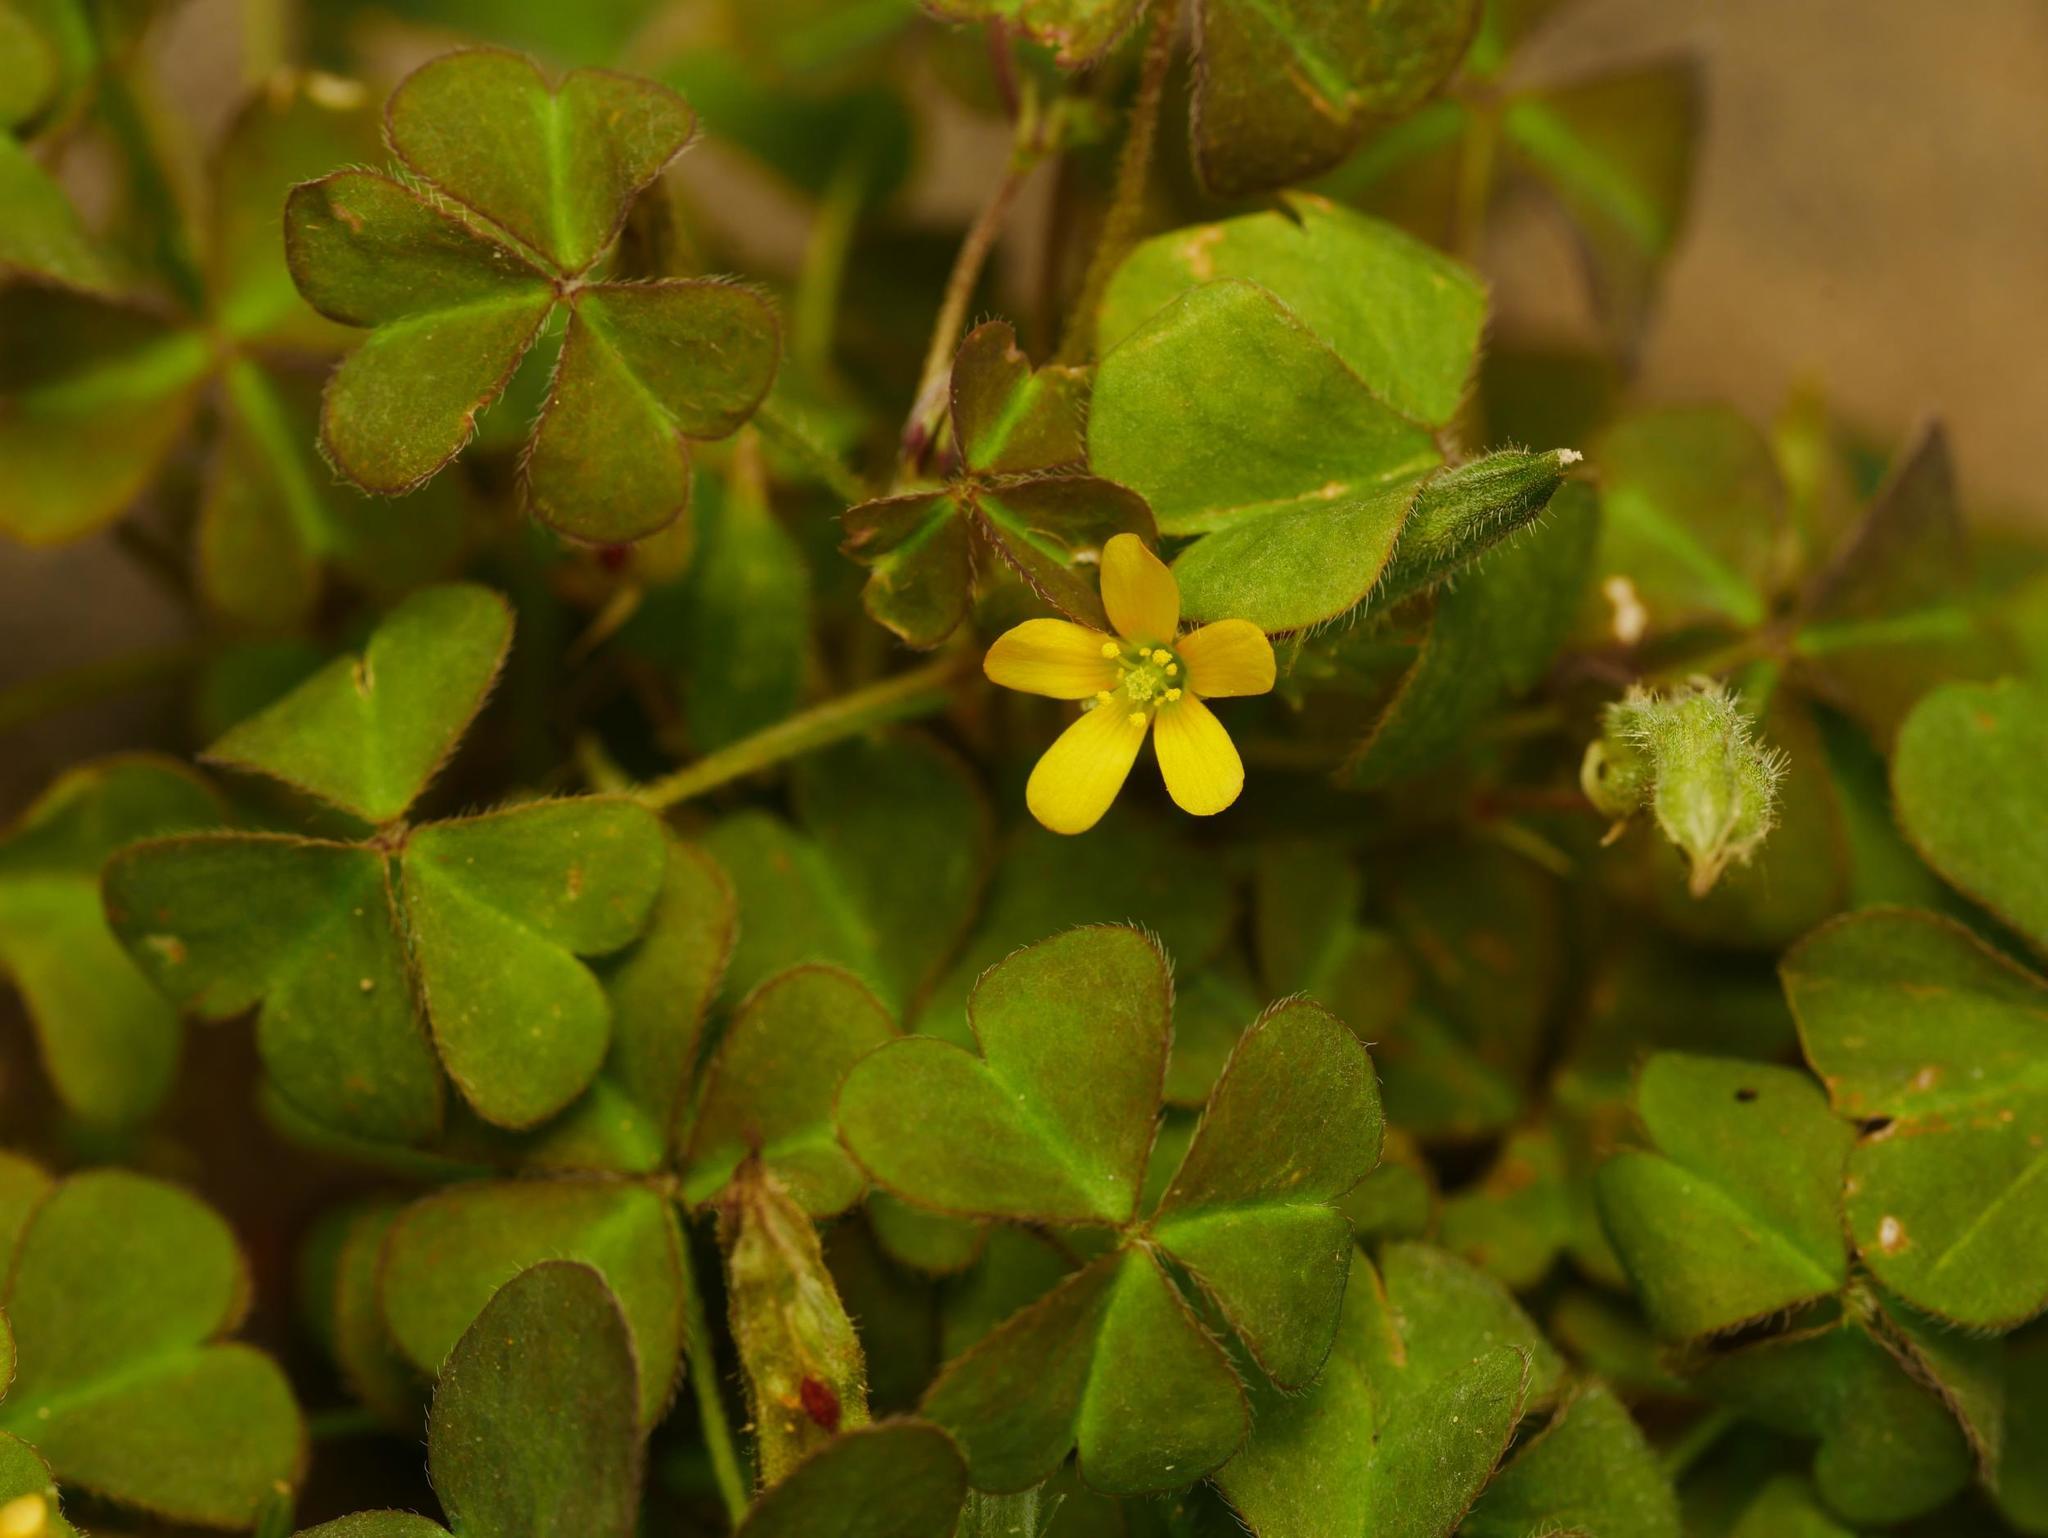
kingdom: Plantae
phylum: Tracheophyta
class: Magnoliopsida
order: Oxalidales
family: Oxalidaceae
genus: Oxalis
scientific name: Oxalis corniculata
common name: Procumbent yellow-sorrel
